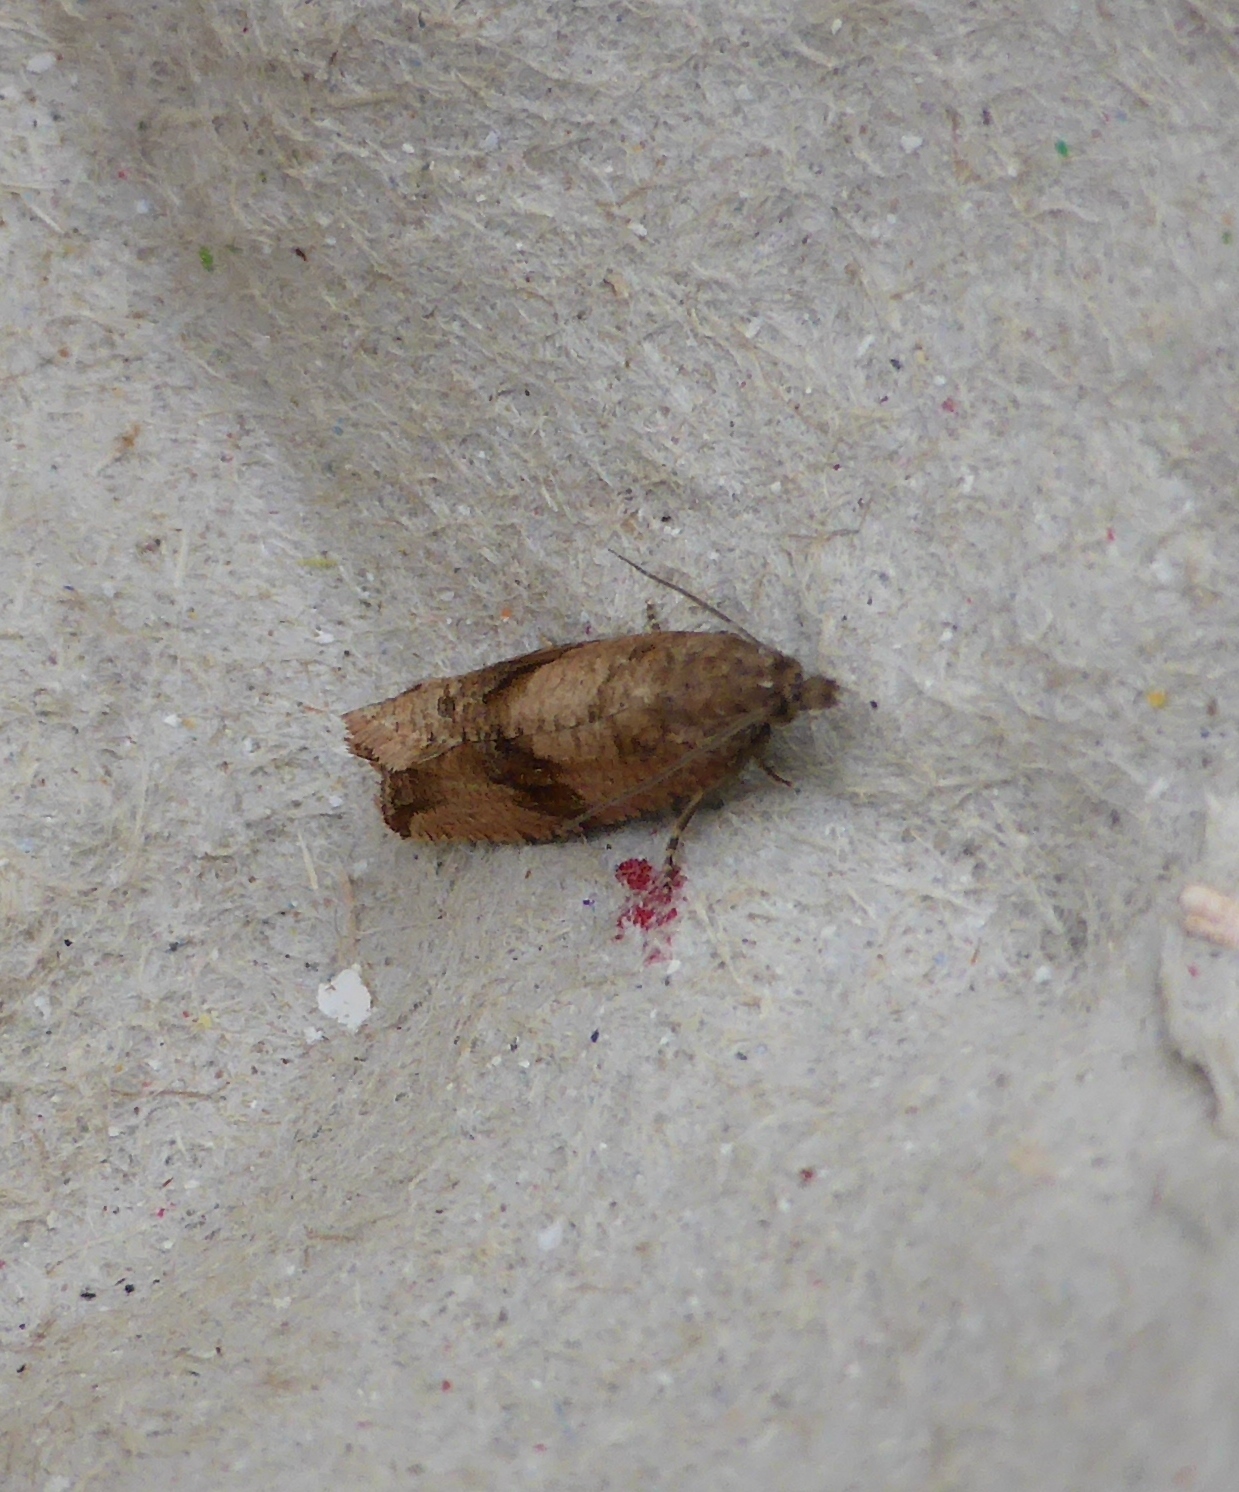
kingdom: Animalia
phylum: Arthropoda
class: Insecta
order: Lepidoptera
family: Tortricidae
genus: Celypha
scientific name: Celypha striana
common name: Barred marble
